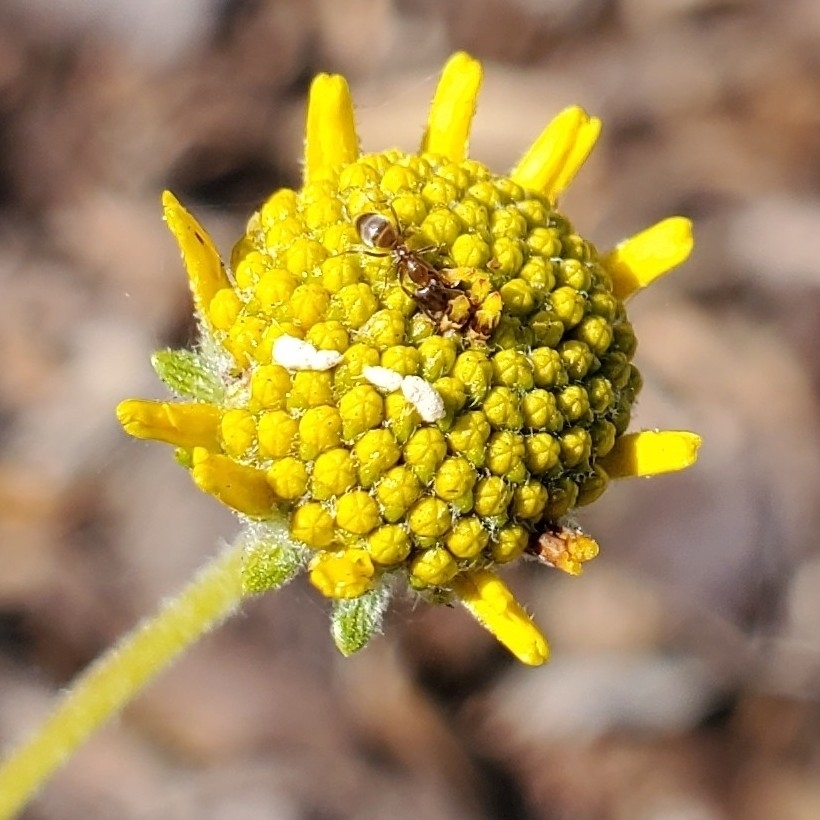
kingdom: Animalia
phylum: Arthropoda
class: Insecta
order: Hymenoptera
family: Formicidae
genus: Linepithema
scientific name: Linepithema humile
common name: Argentine ant
